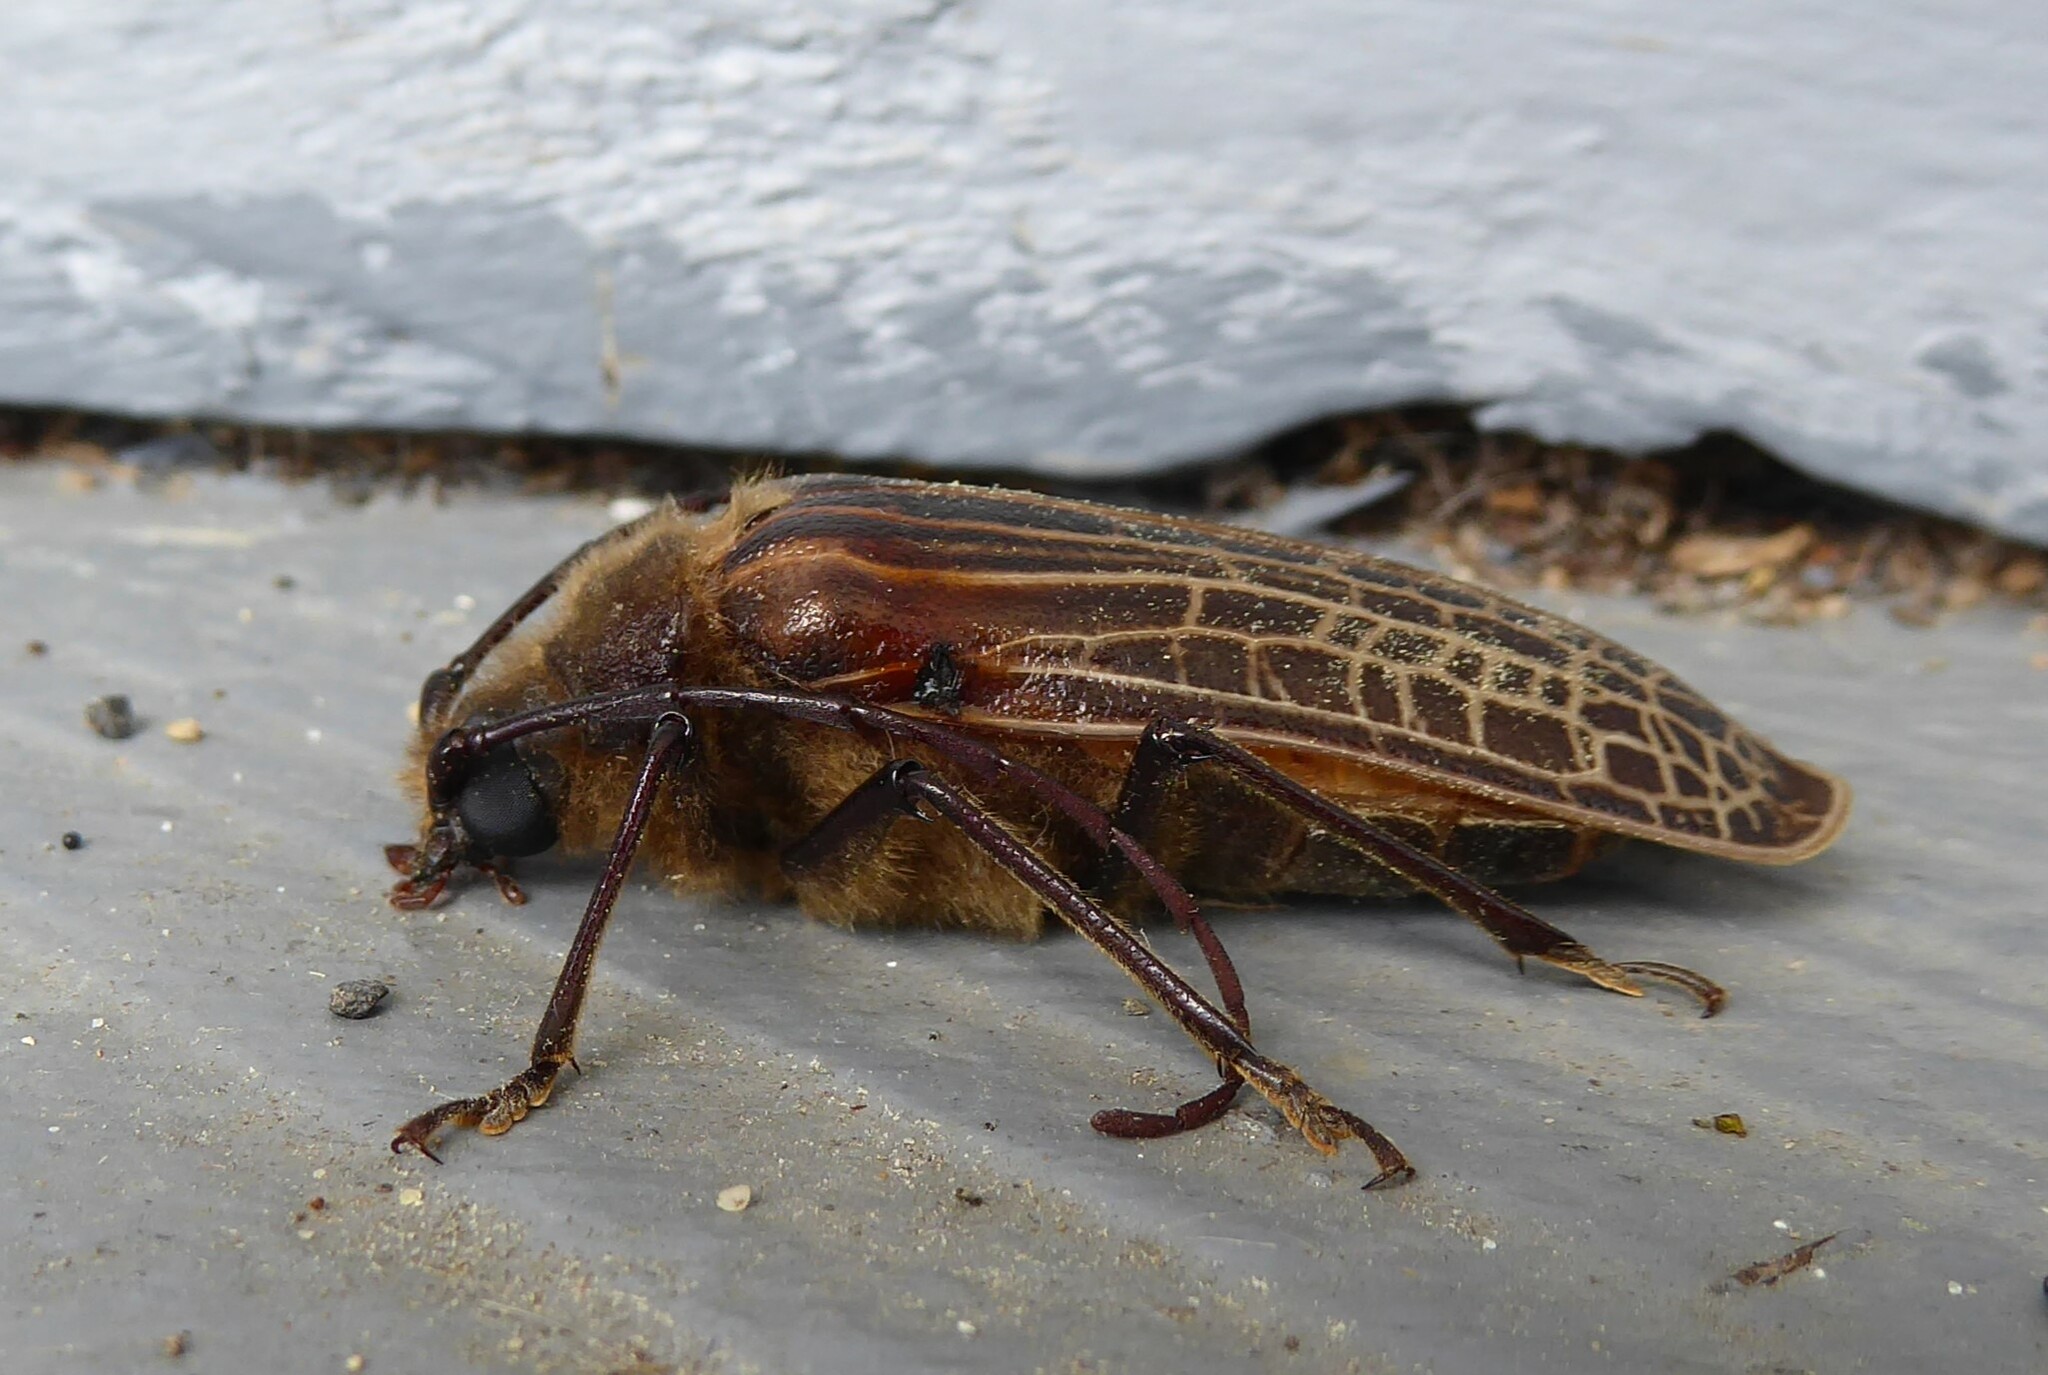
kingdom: Animalia
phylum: Arthropoda
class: Insecta
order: Coleoptera
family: Cerambycidae
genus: Prionoplus
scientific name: Prionoplus reticularis
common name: Huhu beetle
